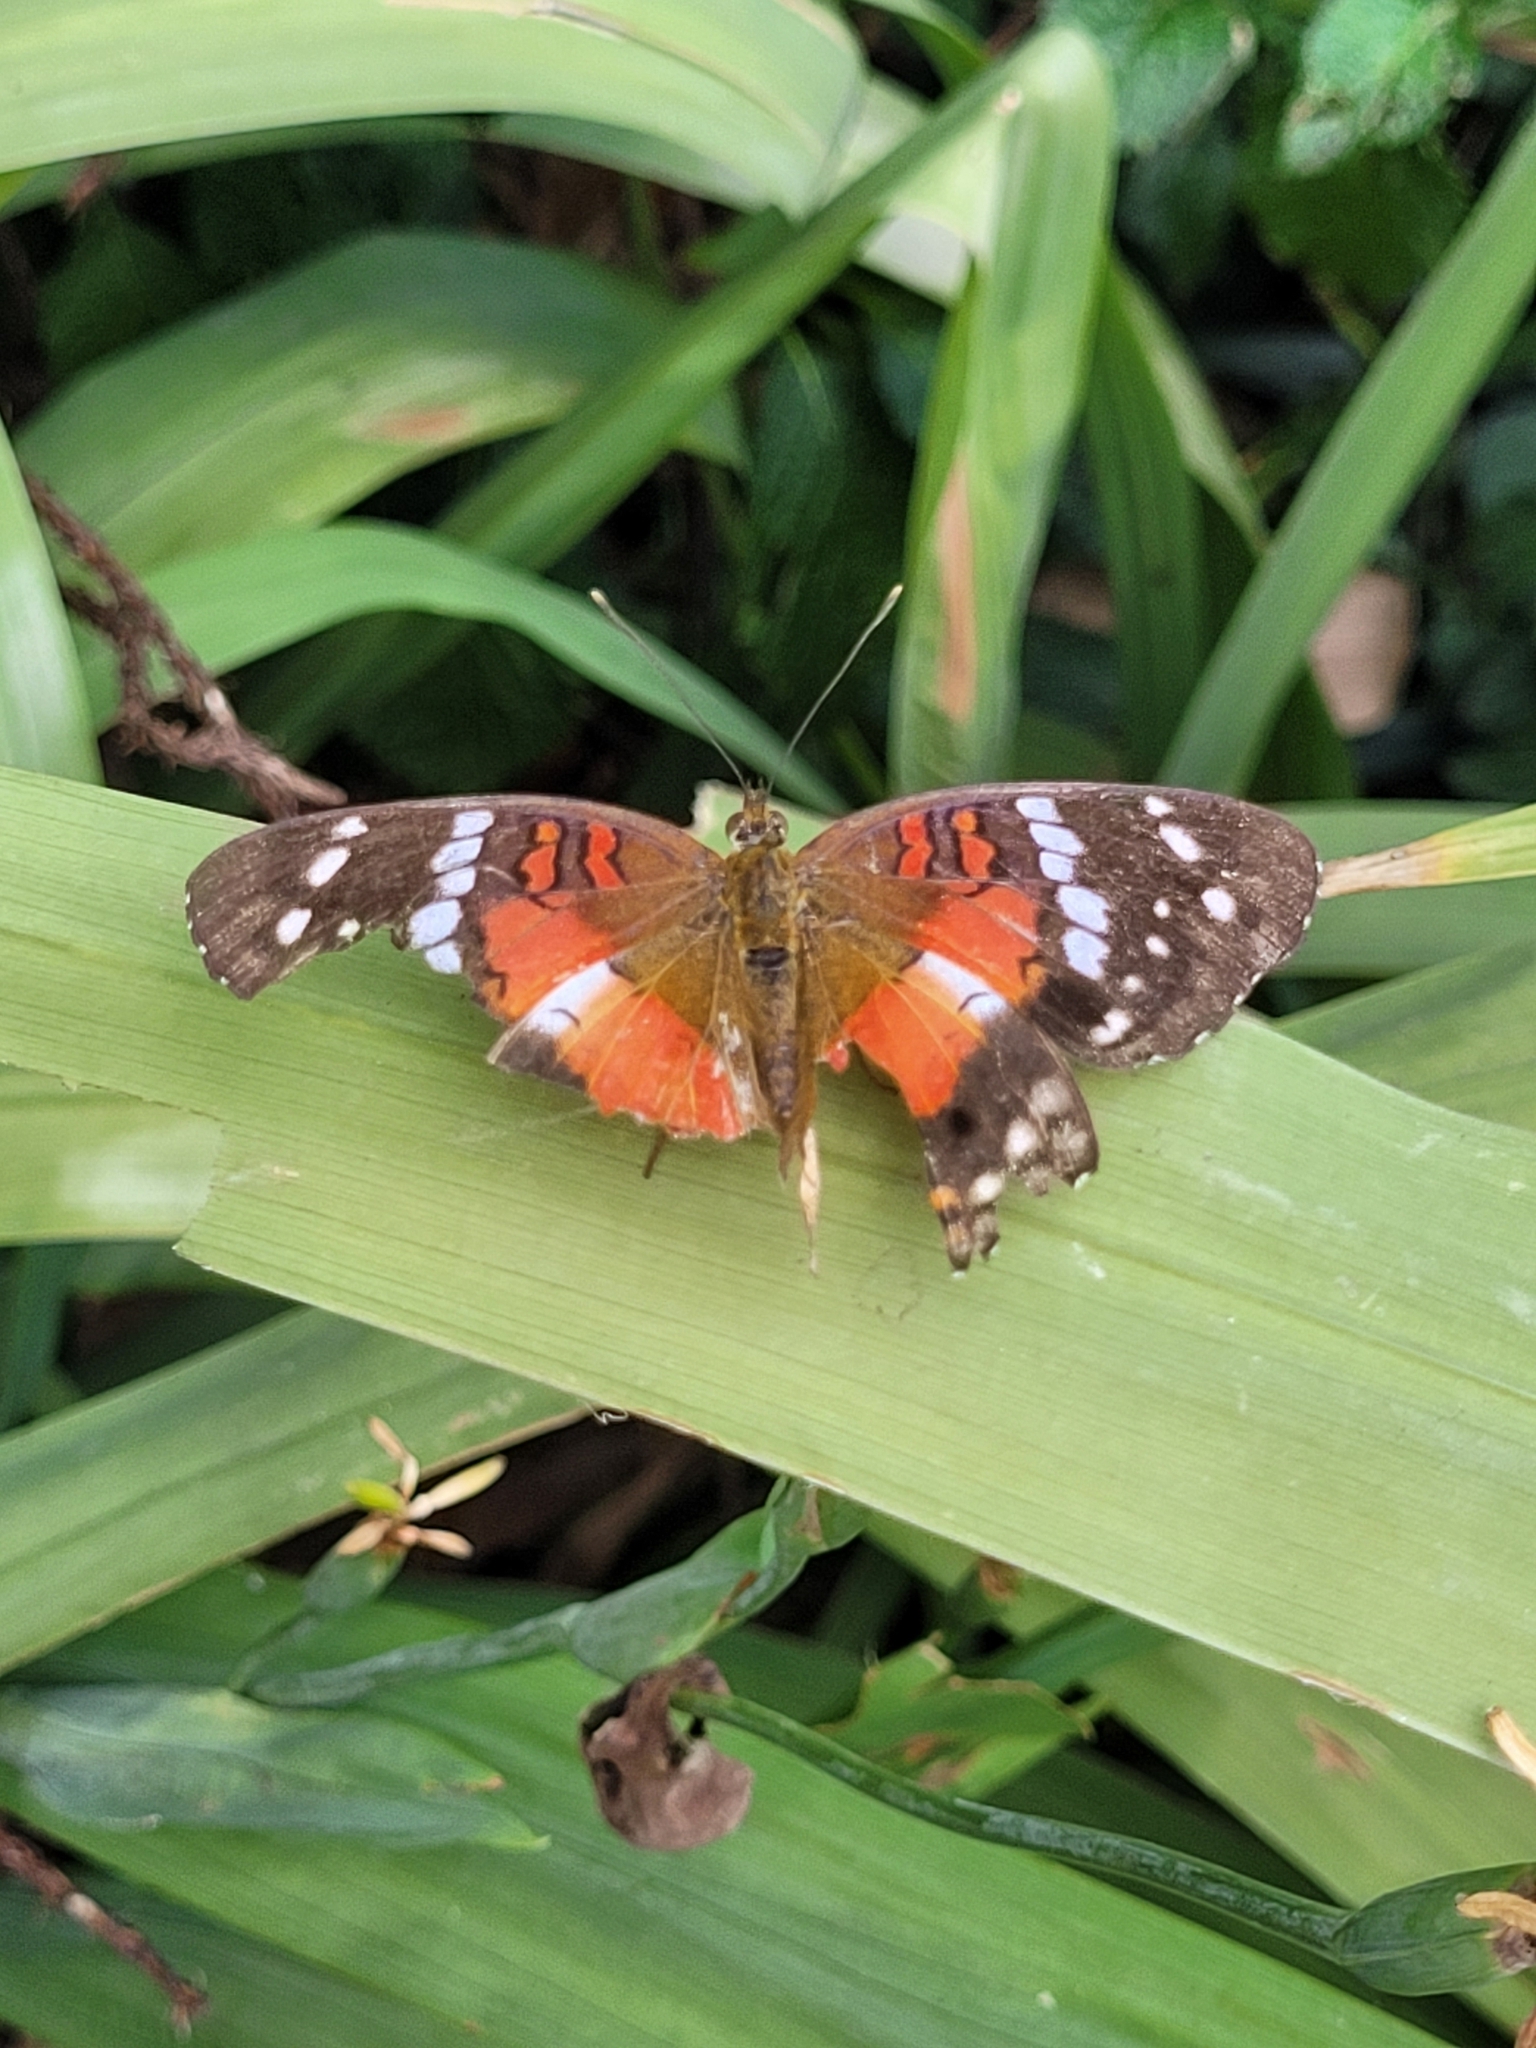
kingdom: Animalia
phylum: Arthropoda
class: Insecta
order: Lepidoptera
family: Nymphalidae
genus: Anartia
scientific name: Anartia amathea
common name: Red peacock
